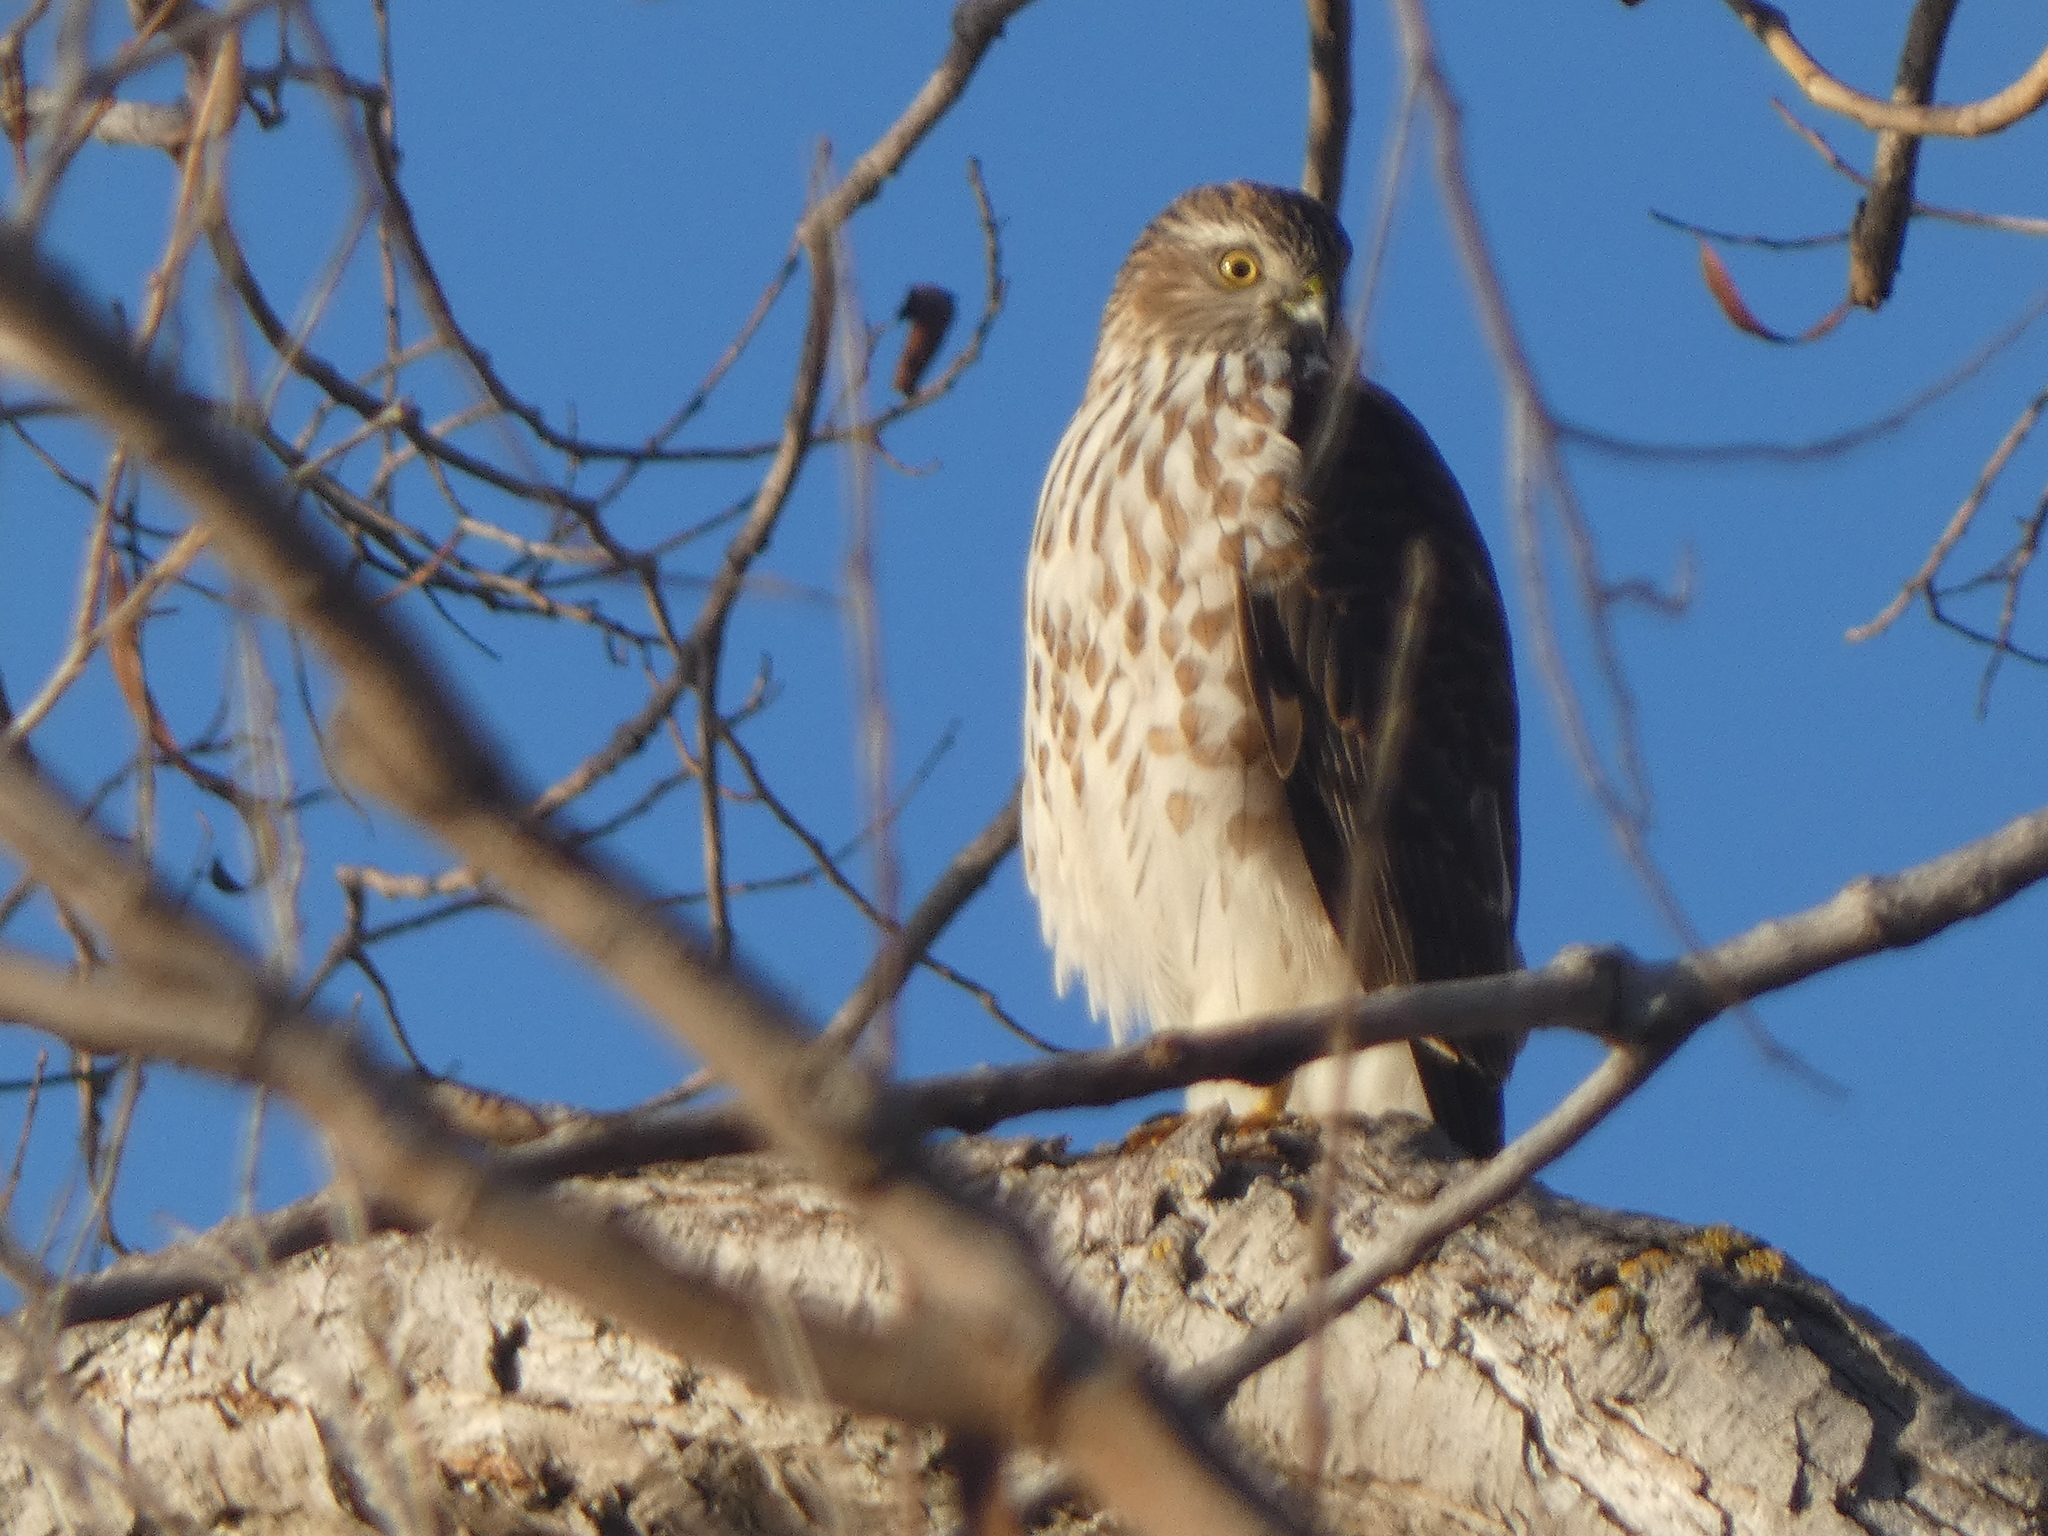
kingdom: Animalia
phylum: Chordata
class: Aves
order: Accipitriformes
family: Accipitridae
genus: Accipiter
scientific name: Accipiter striatus
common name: Sharp-shinned hawk
